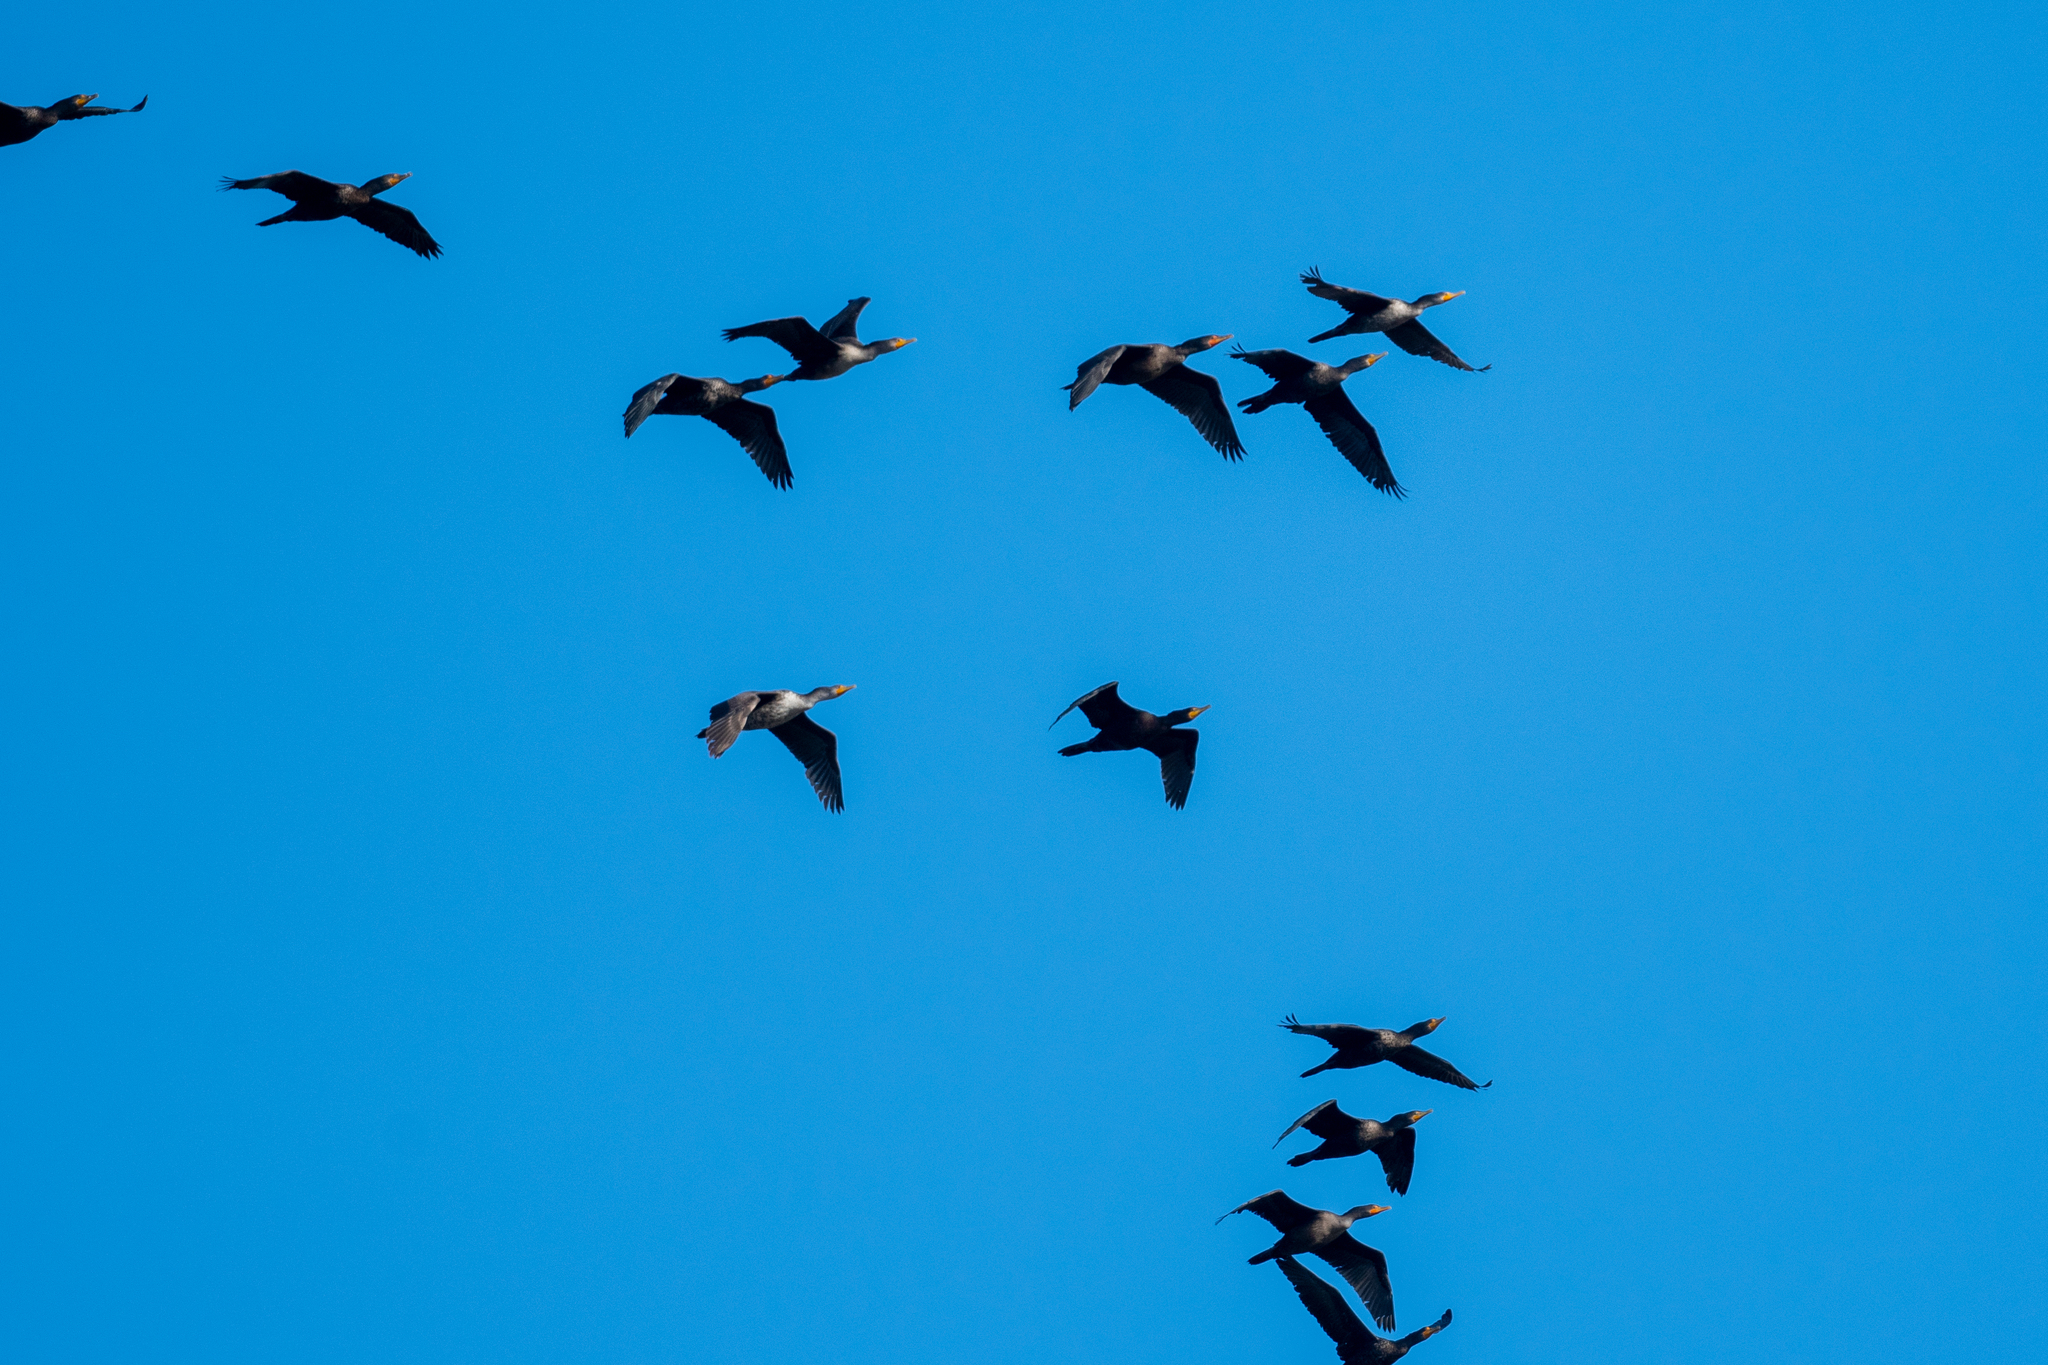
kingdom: Animalia
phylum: Chordata
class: Aves
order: Suliformes
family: Phalacrocoracidae
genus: Phalacrocorax
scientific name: Phalacrocorax auritus
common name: Double-crested cormorant
